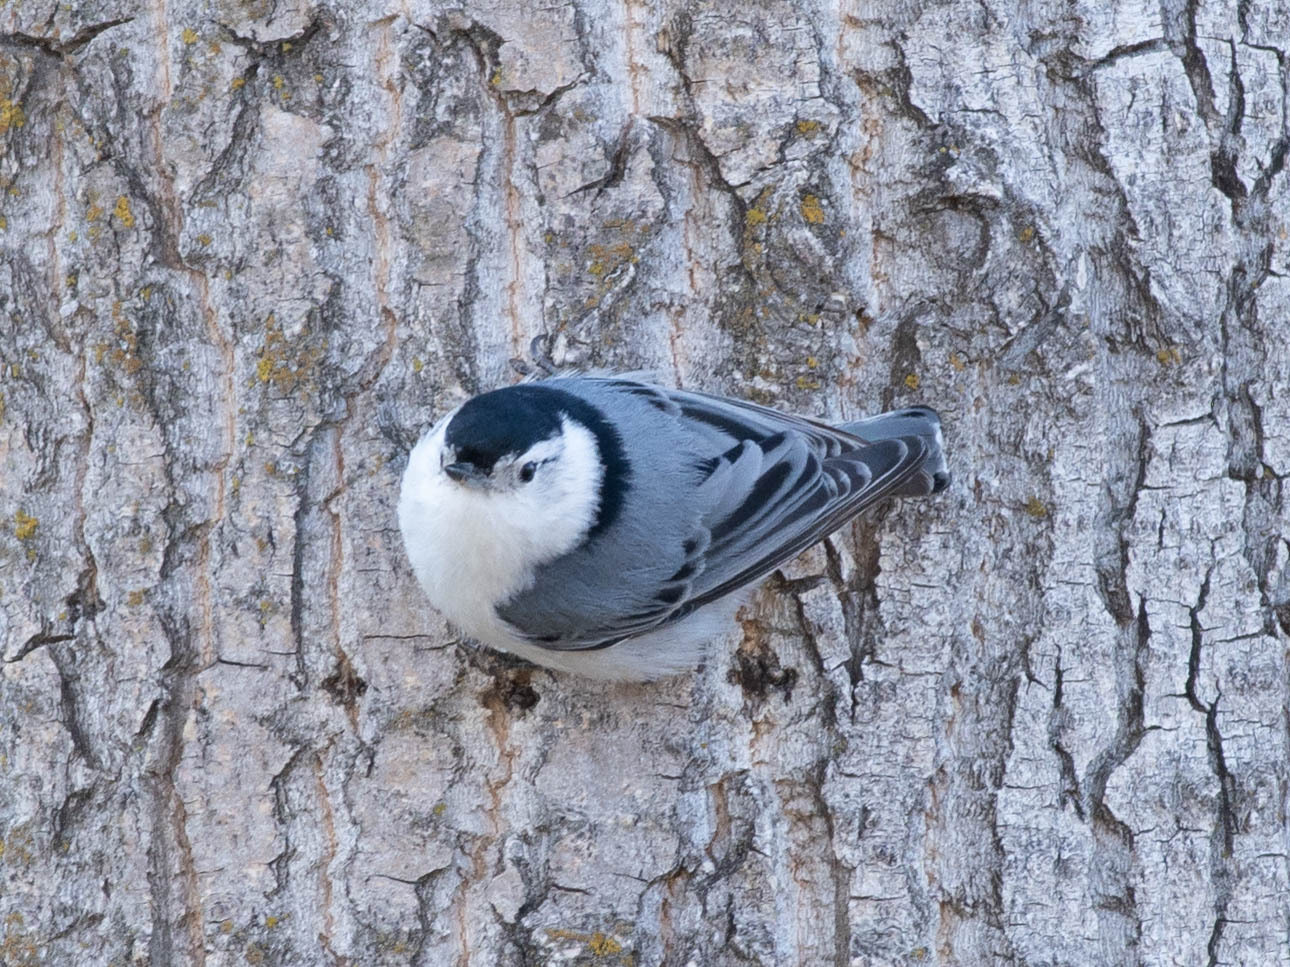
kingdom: Animalia
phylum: Chordata
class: Aves
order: Passeriformes
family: Sittidae
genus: Sitta
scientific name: Sitta carolinensis
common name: White-breasted nuthatch
